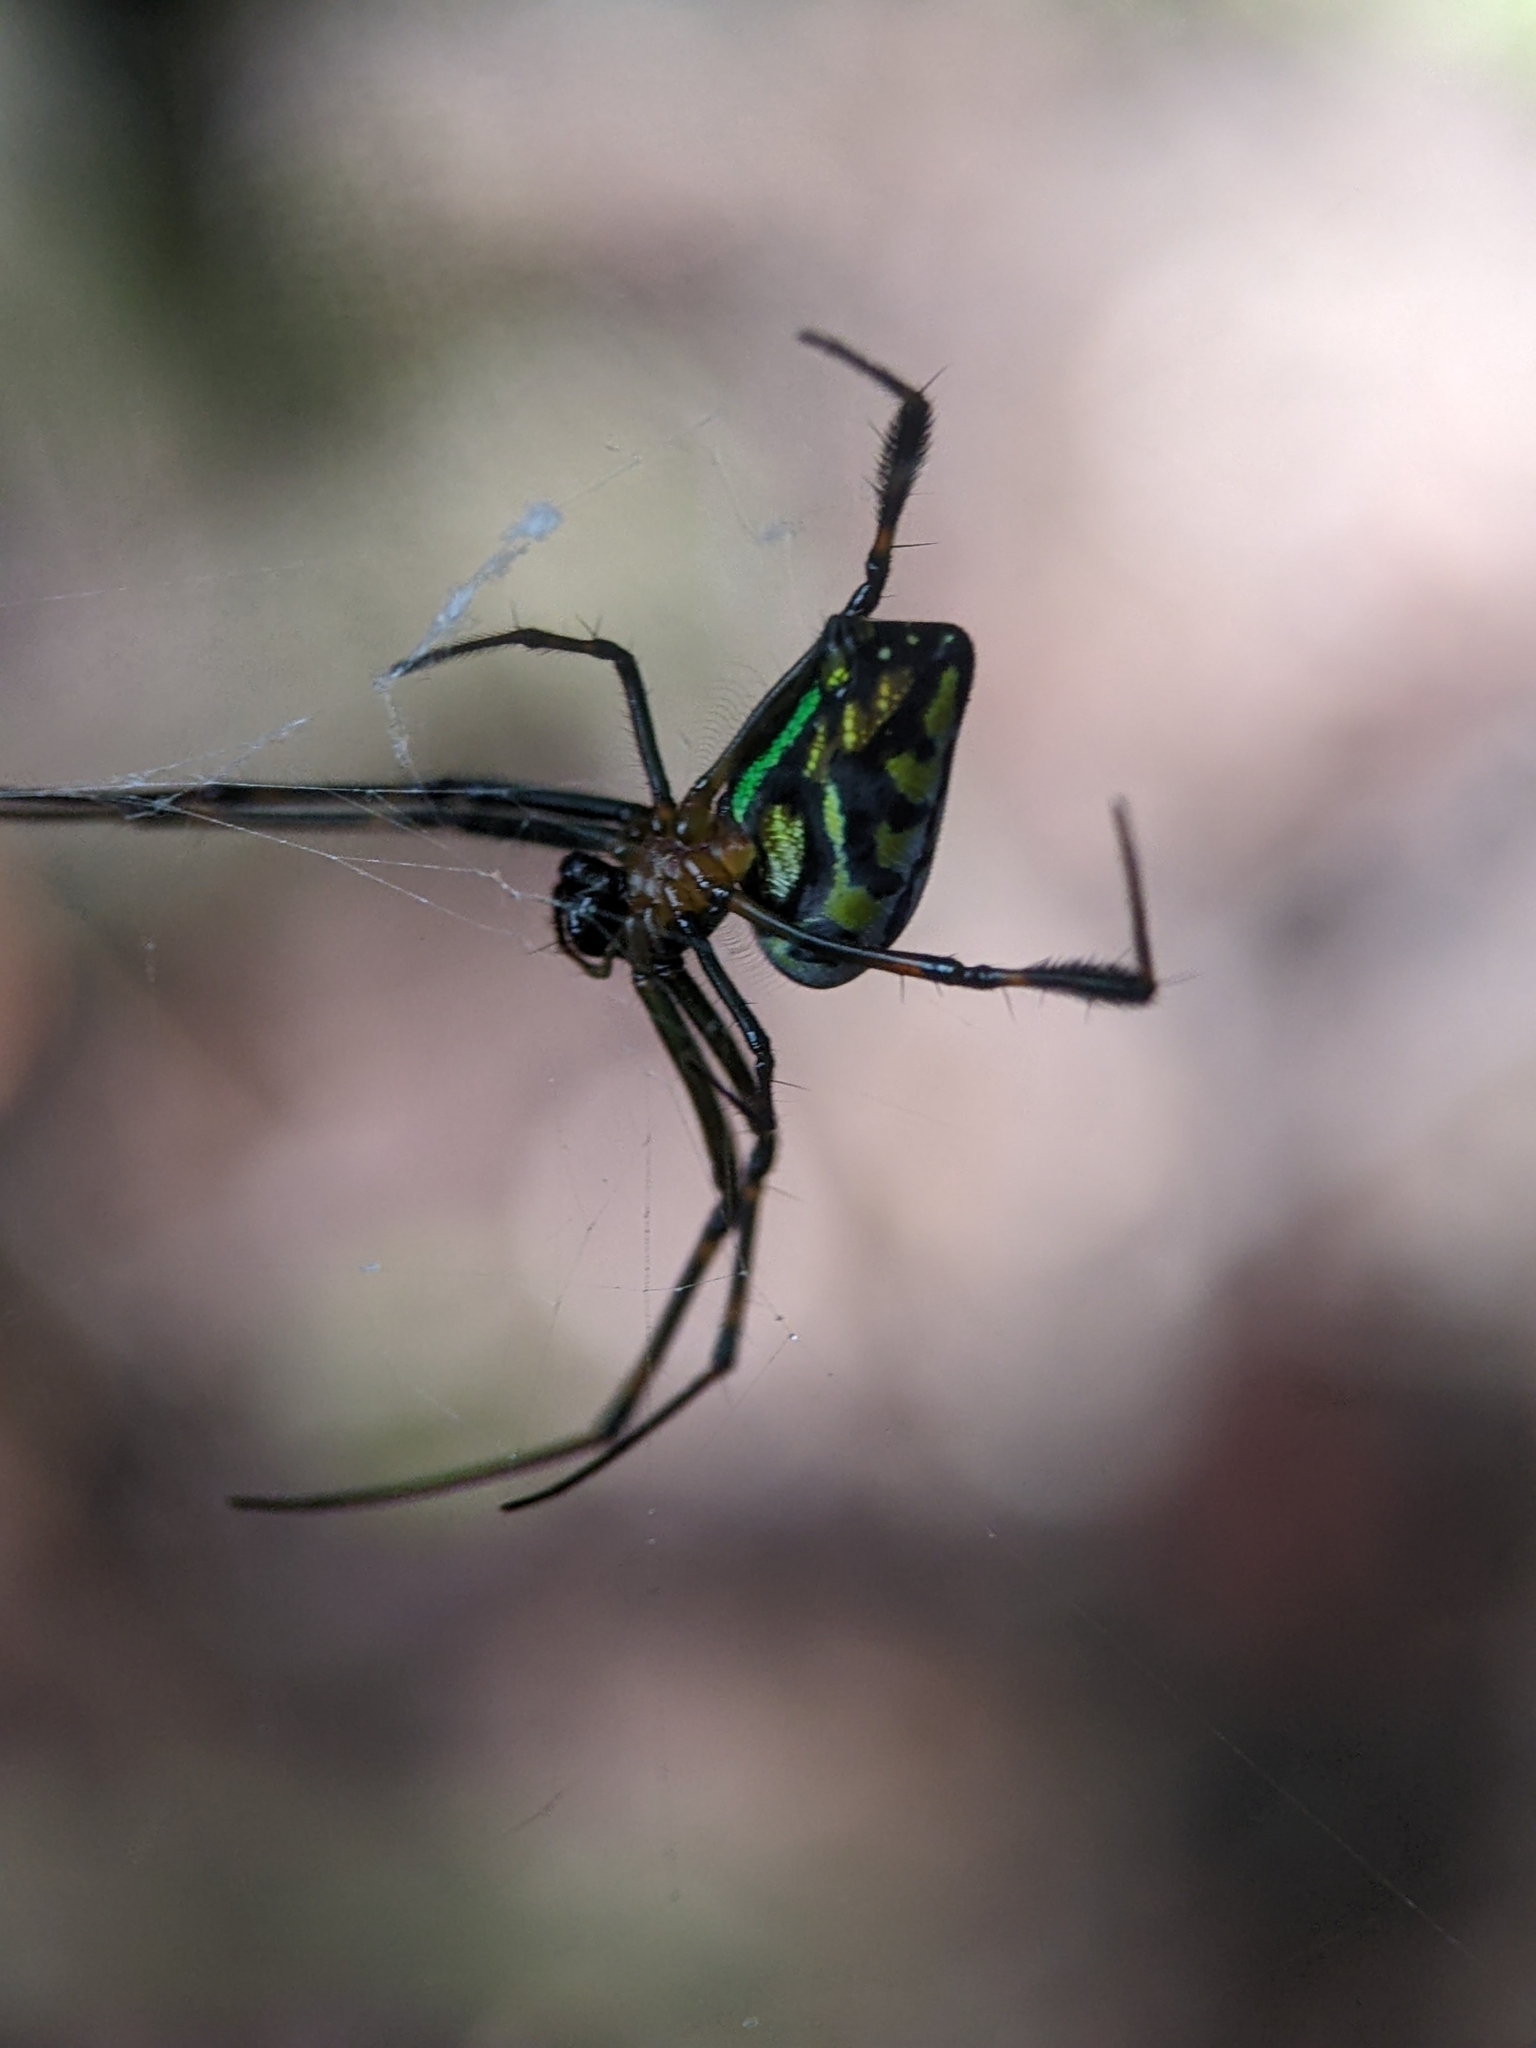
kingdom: Animalia
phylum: Arthropoda
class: Arachnida
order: Araneae
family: Tetragnathidae
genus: Leucauge
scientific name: Leucauge tessellata
